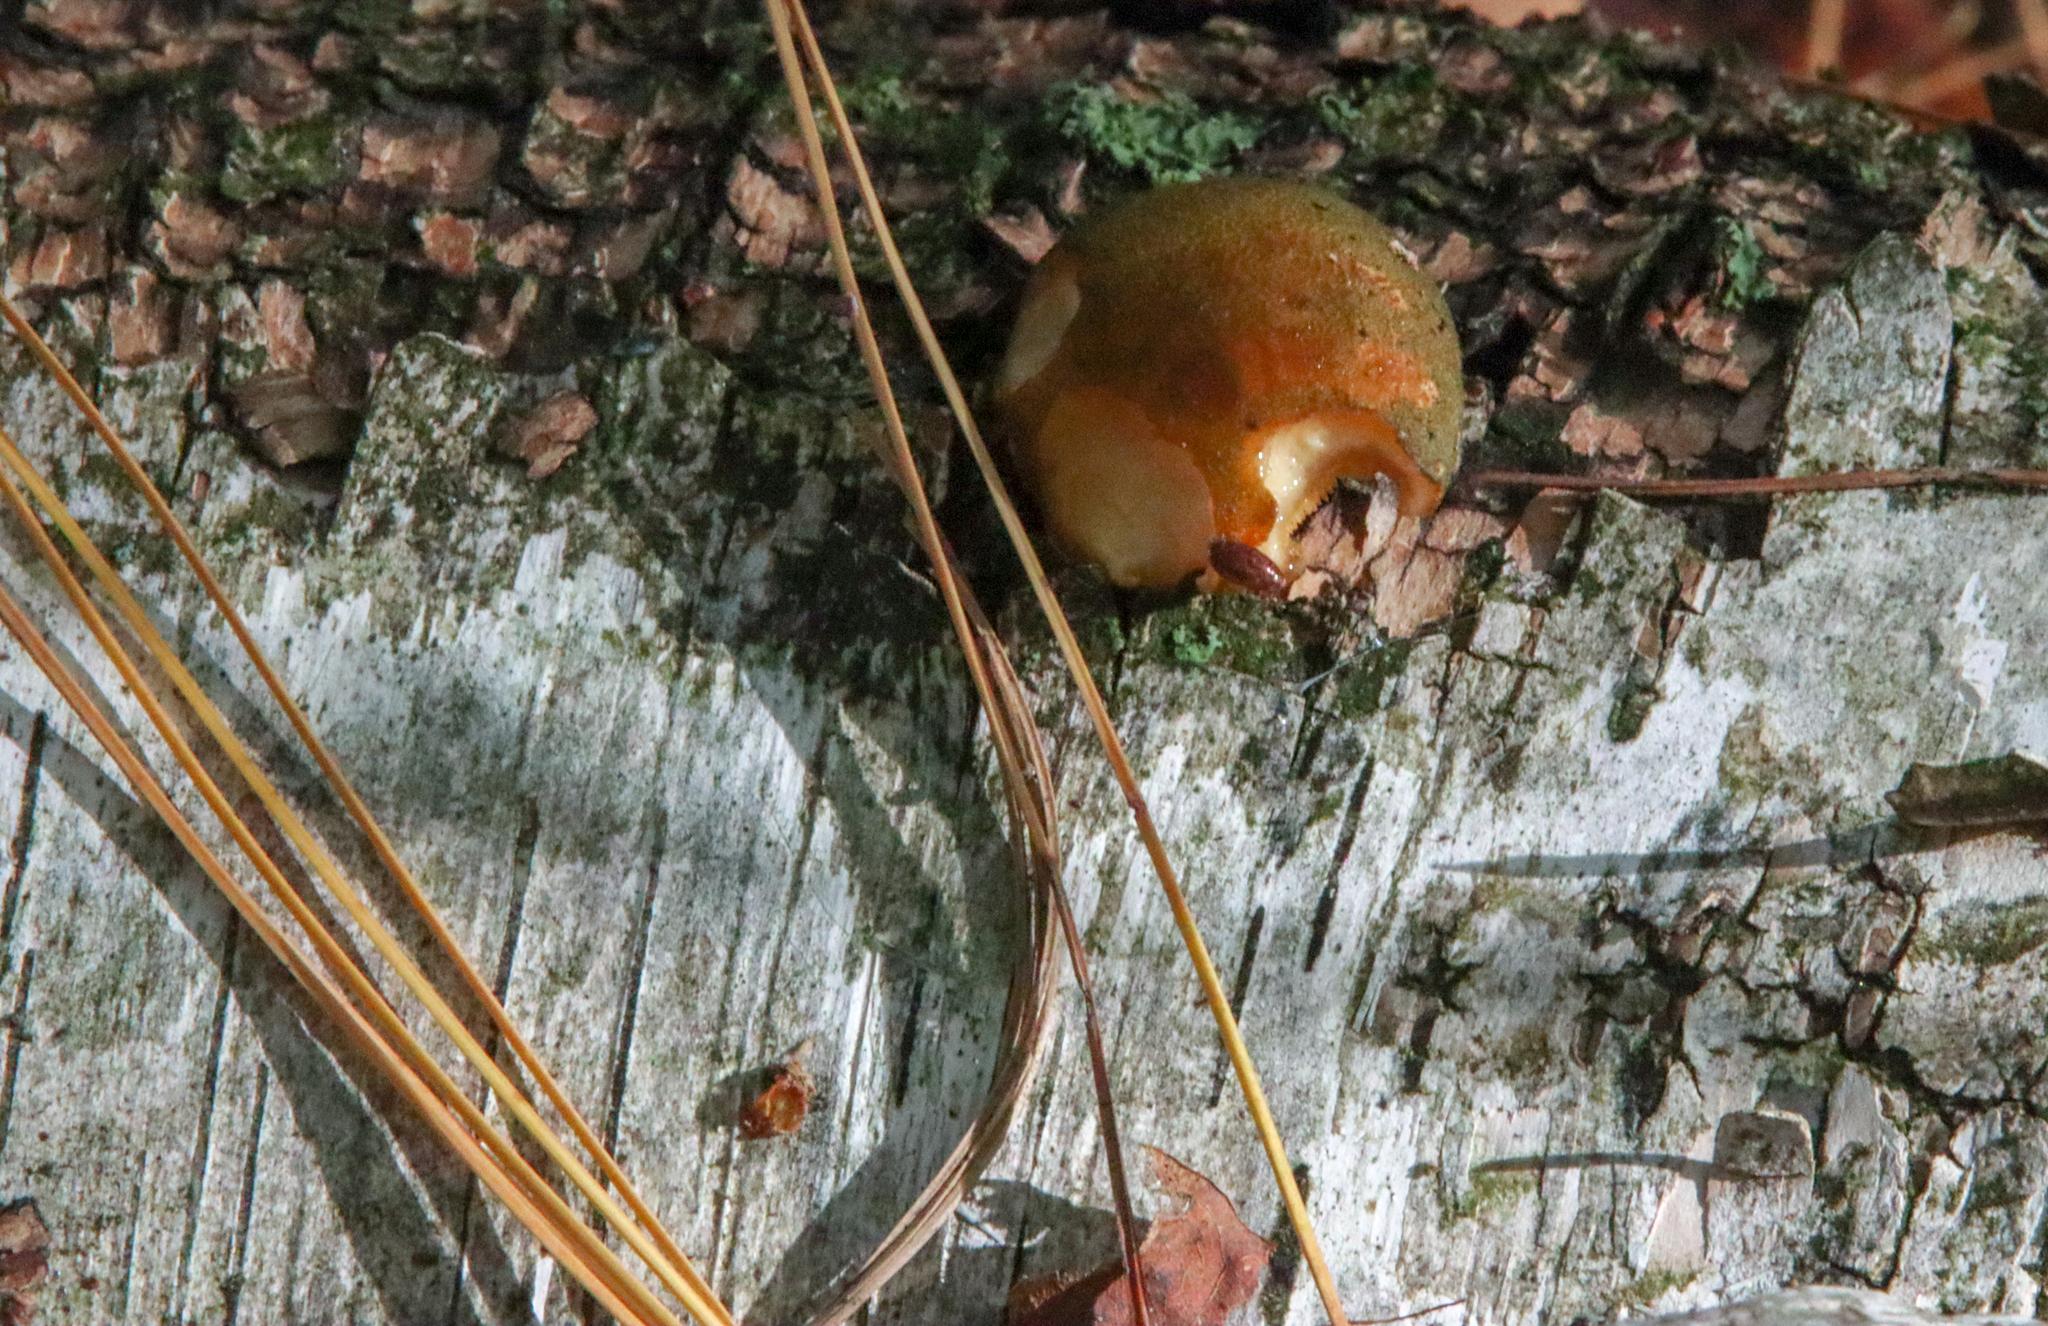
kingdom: Fungi
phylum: Basidiomycota
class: Agaricomycetes
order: Agaricales
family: Sarcomyxaceae
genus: Sarcomyxa
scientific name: Sarcomyxa serotina
